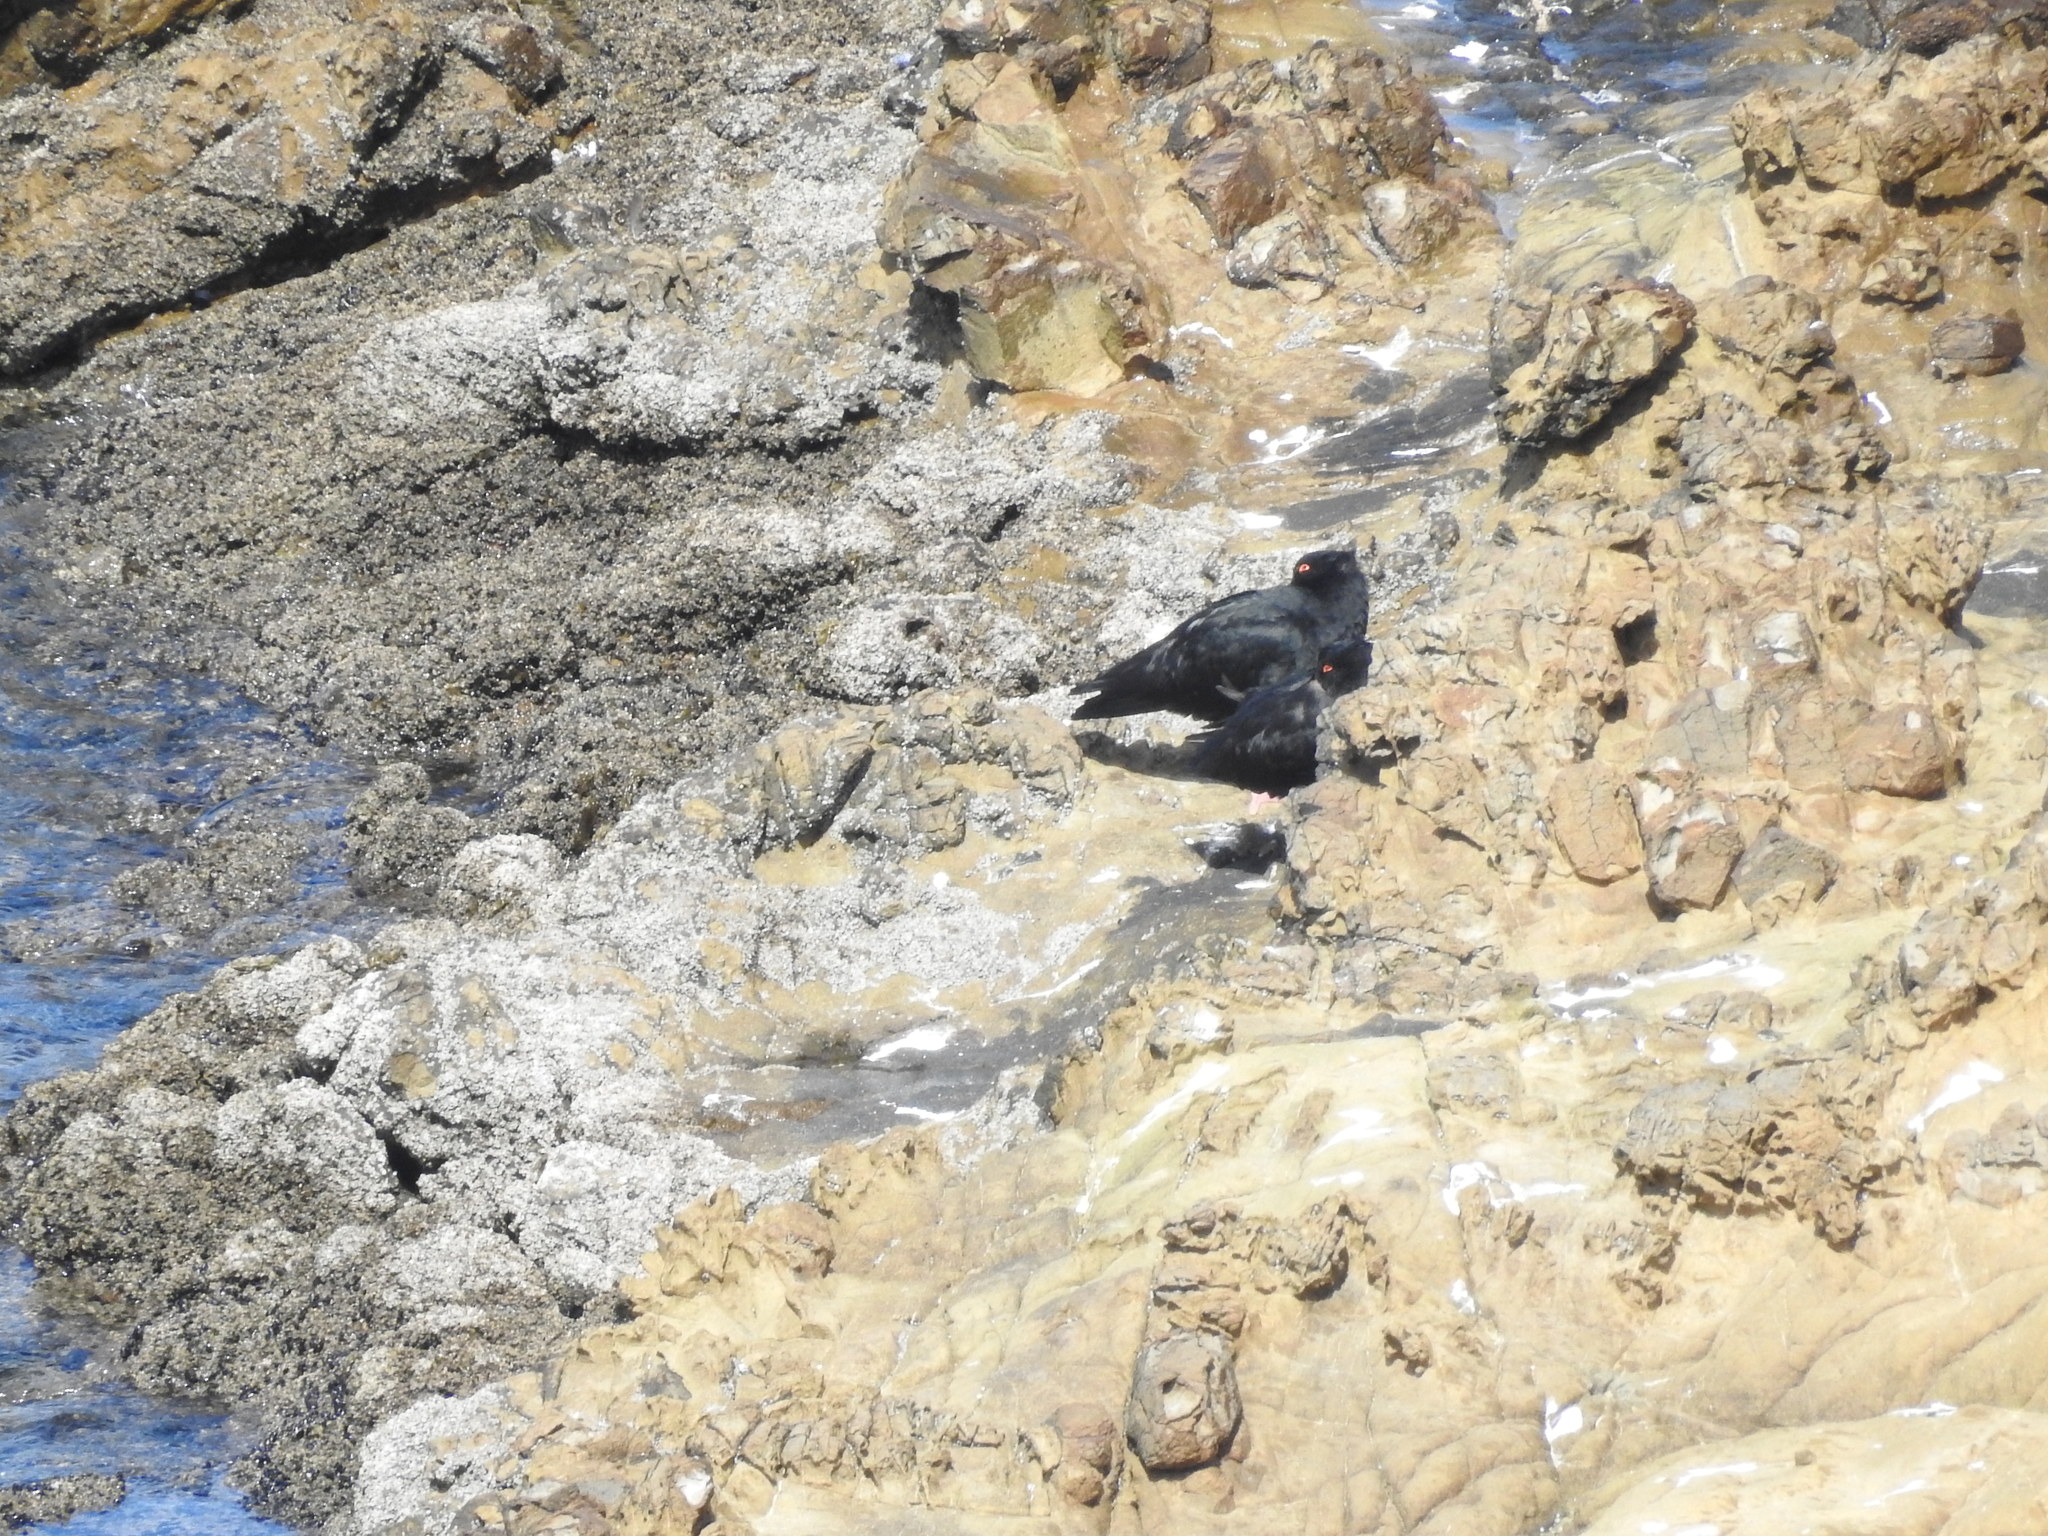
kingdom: Animalia
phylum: Chordata
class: Aves
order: Charadriiformes
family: Haematopodidae
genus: Haematopus
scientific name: Haematopus unicolor
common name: Variable oystercatcher
